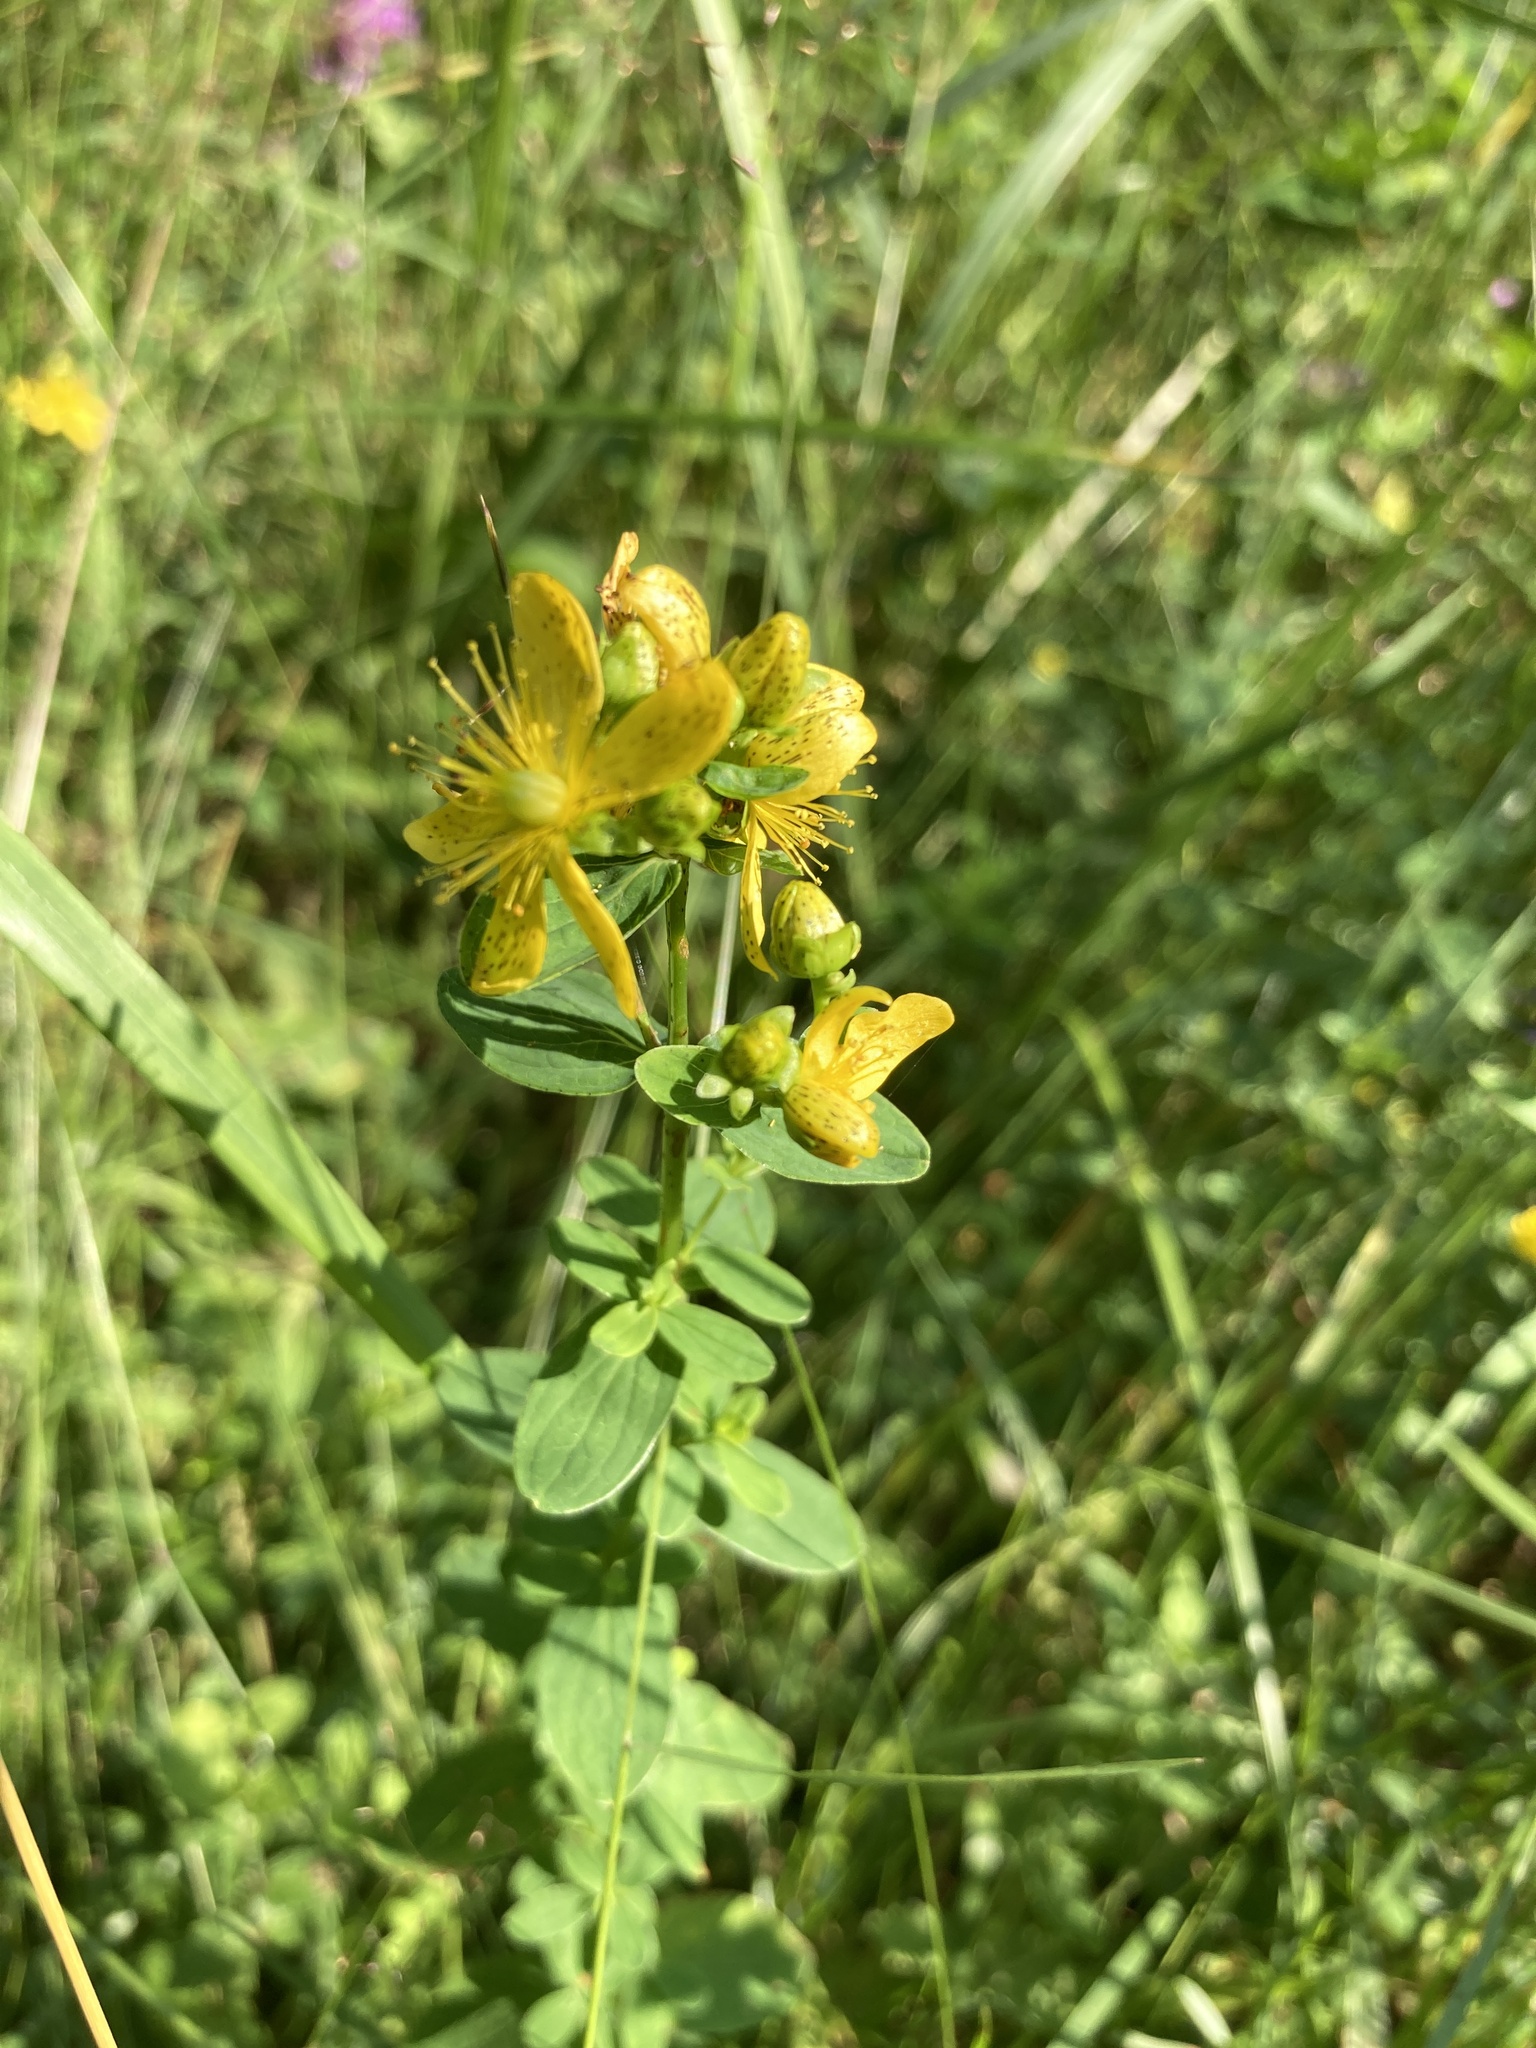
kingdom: Plantae
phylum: Tracheophyta
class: Magnoliopsida
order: Malpighiales
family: Hypericaceae
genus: Hypericum
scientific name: Hypericum maculatum
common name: Imperforate st. john's-wort
